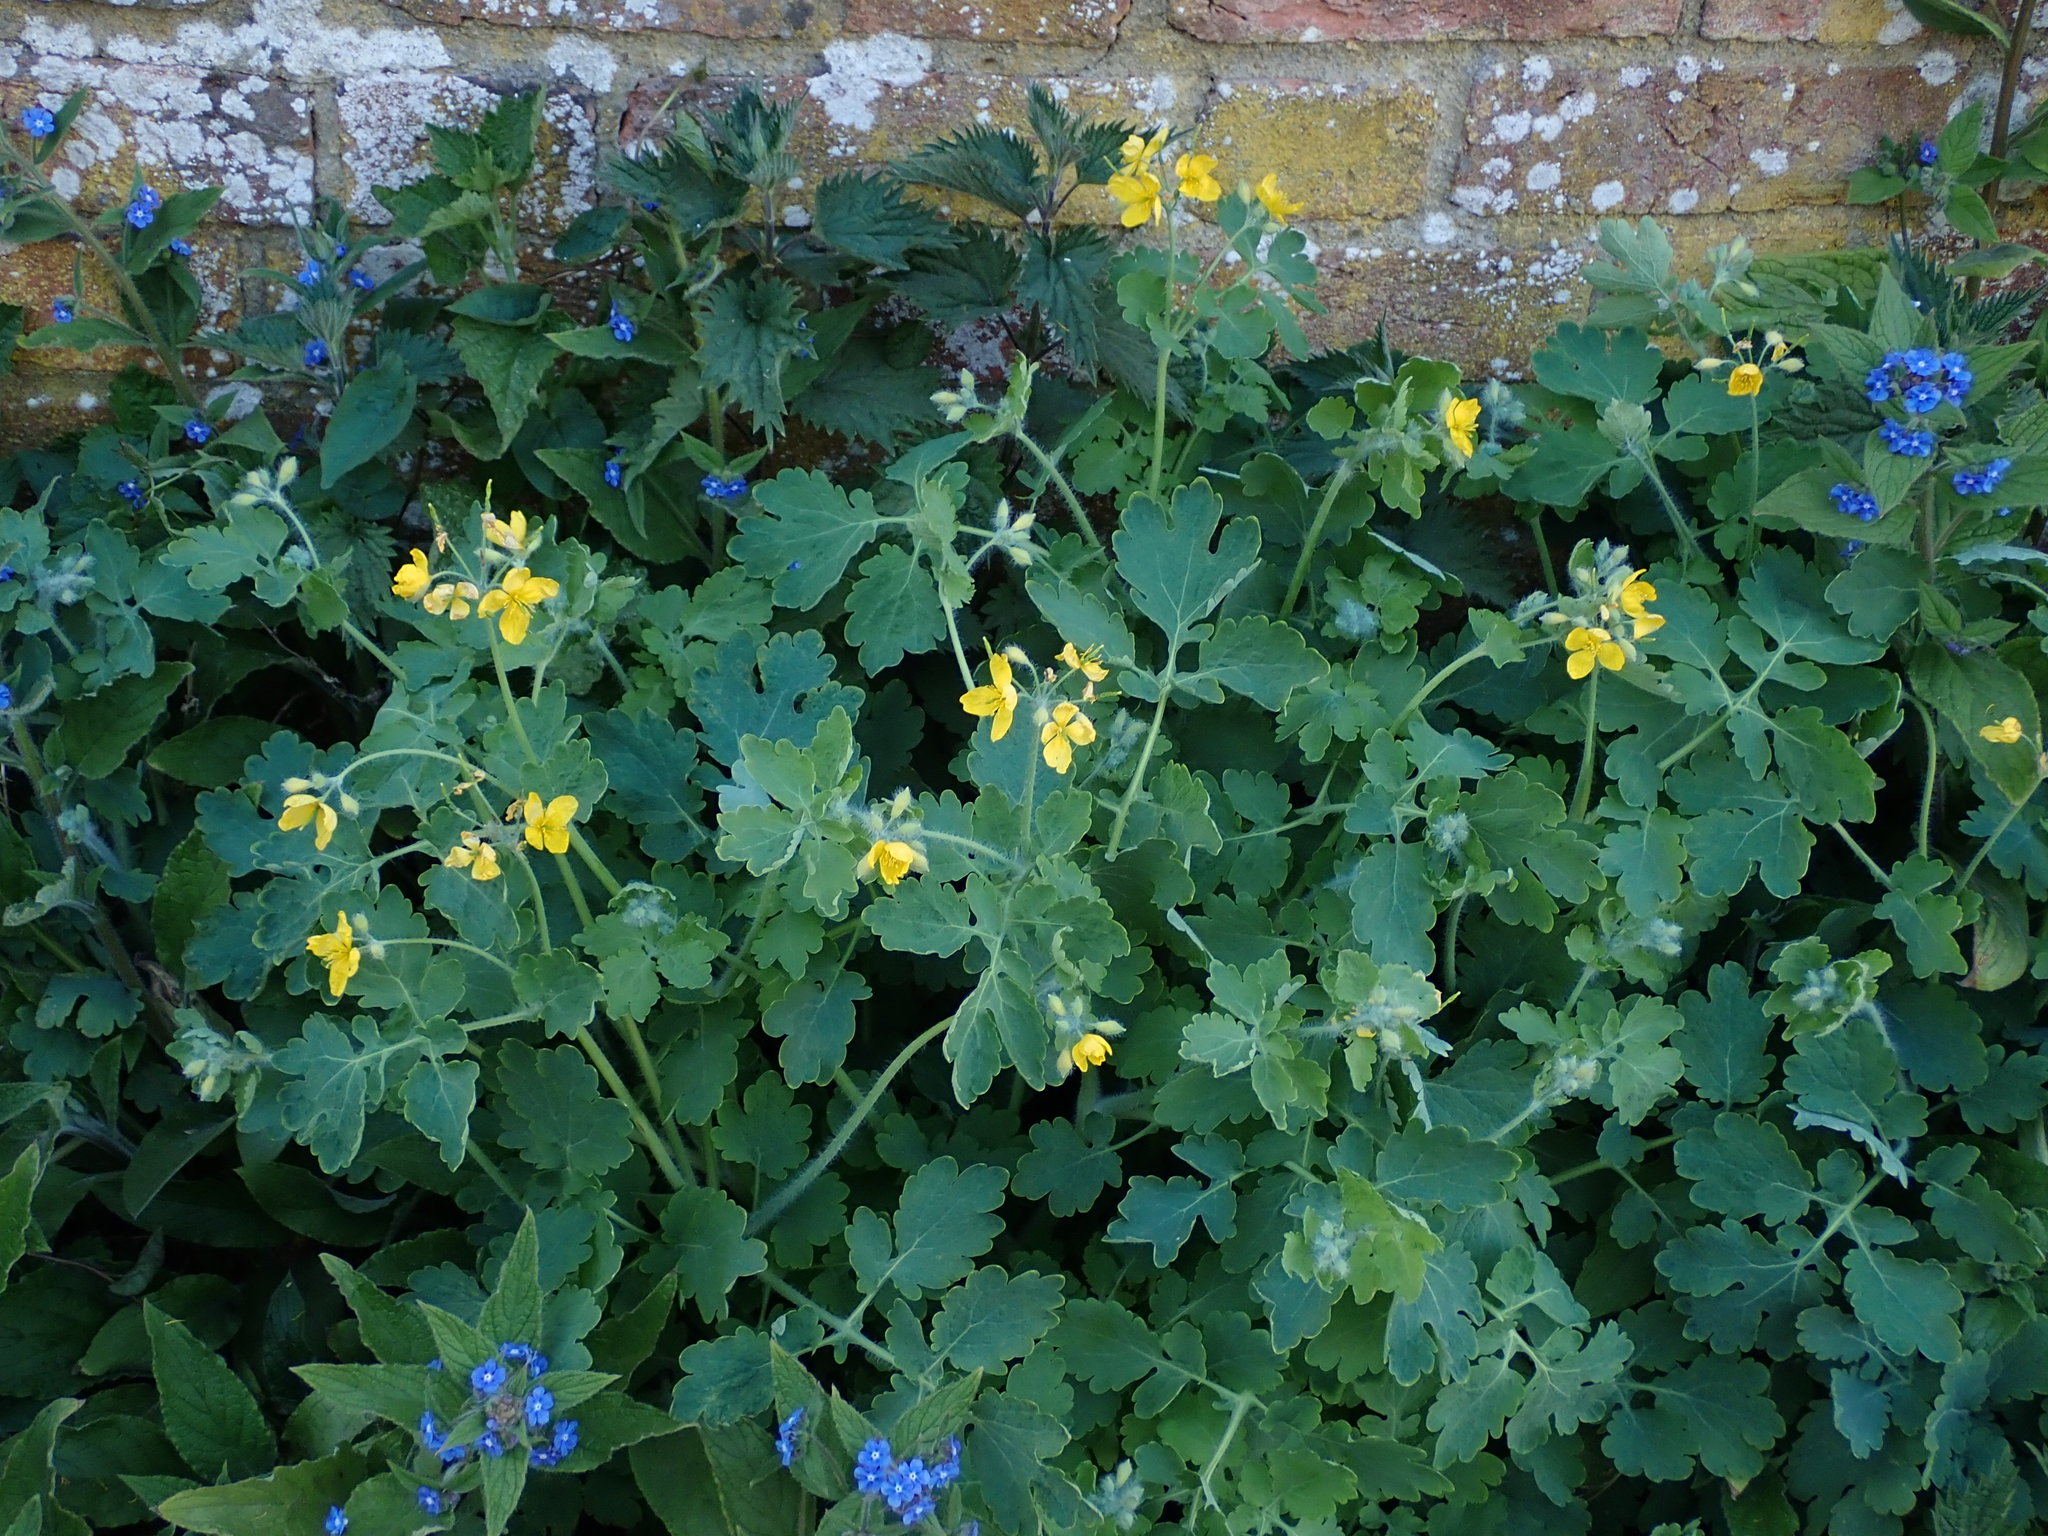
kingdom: Plantae
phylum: Tracheophyta
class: Magnoliopsida
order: Ranunculales
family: Papaveraceae
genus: Chelidonium
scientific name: Chelidonium majus
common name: Greater celandine
